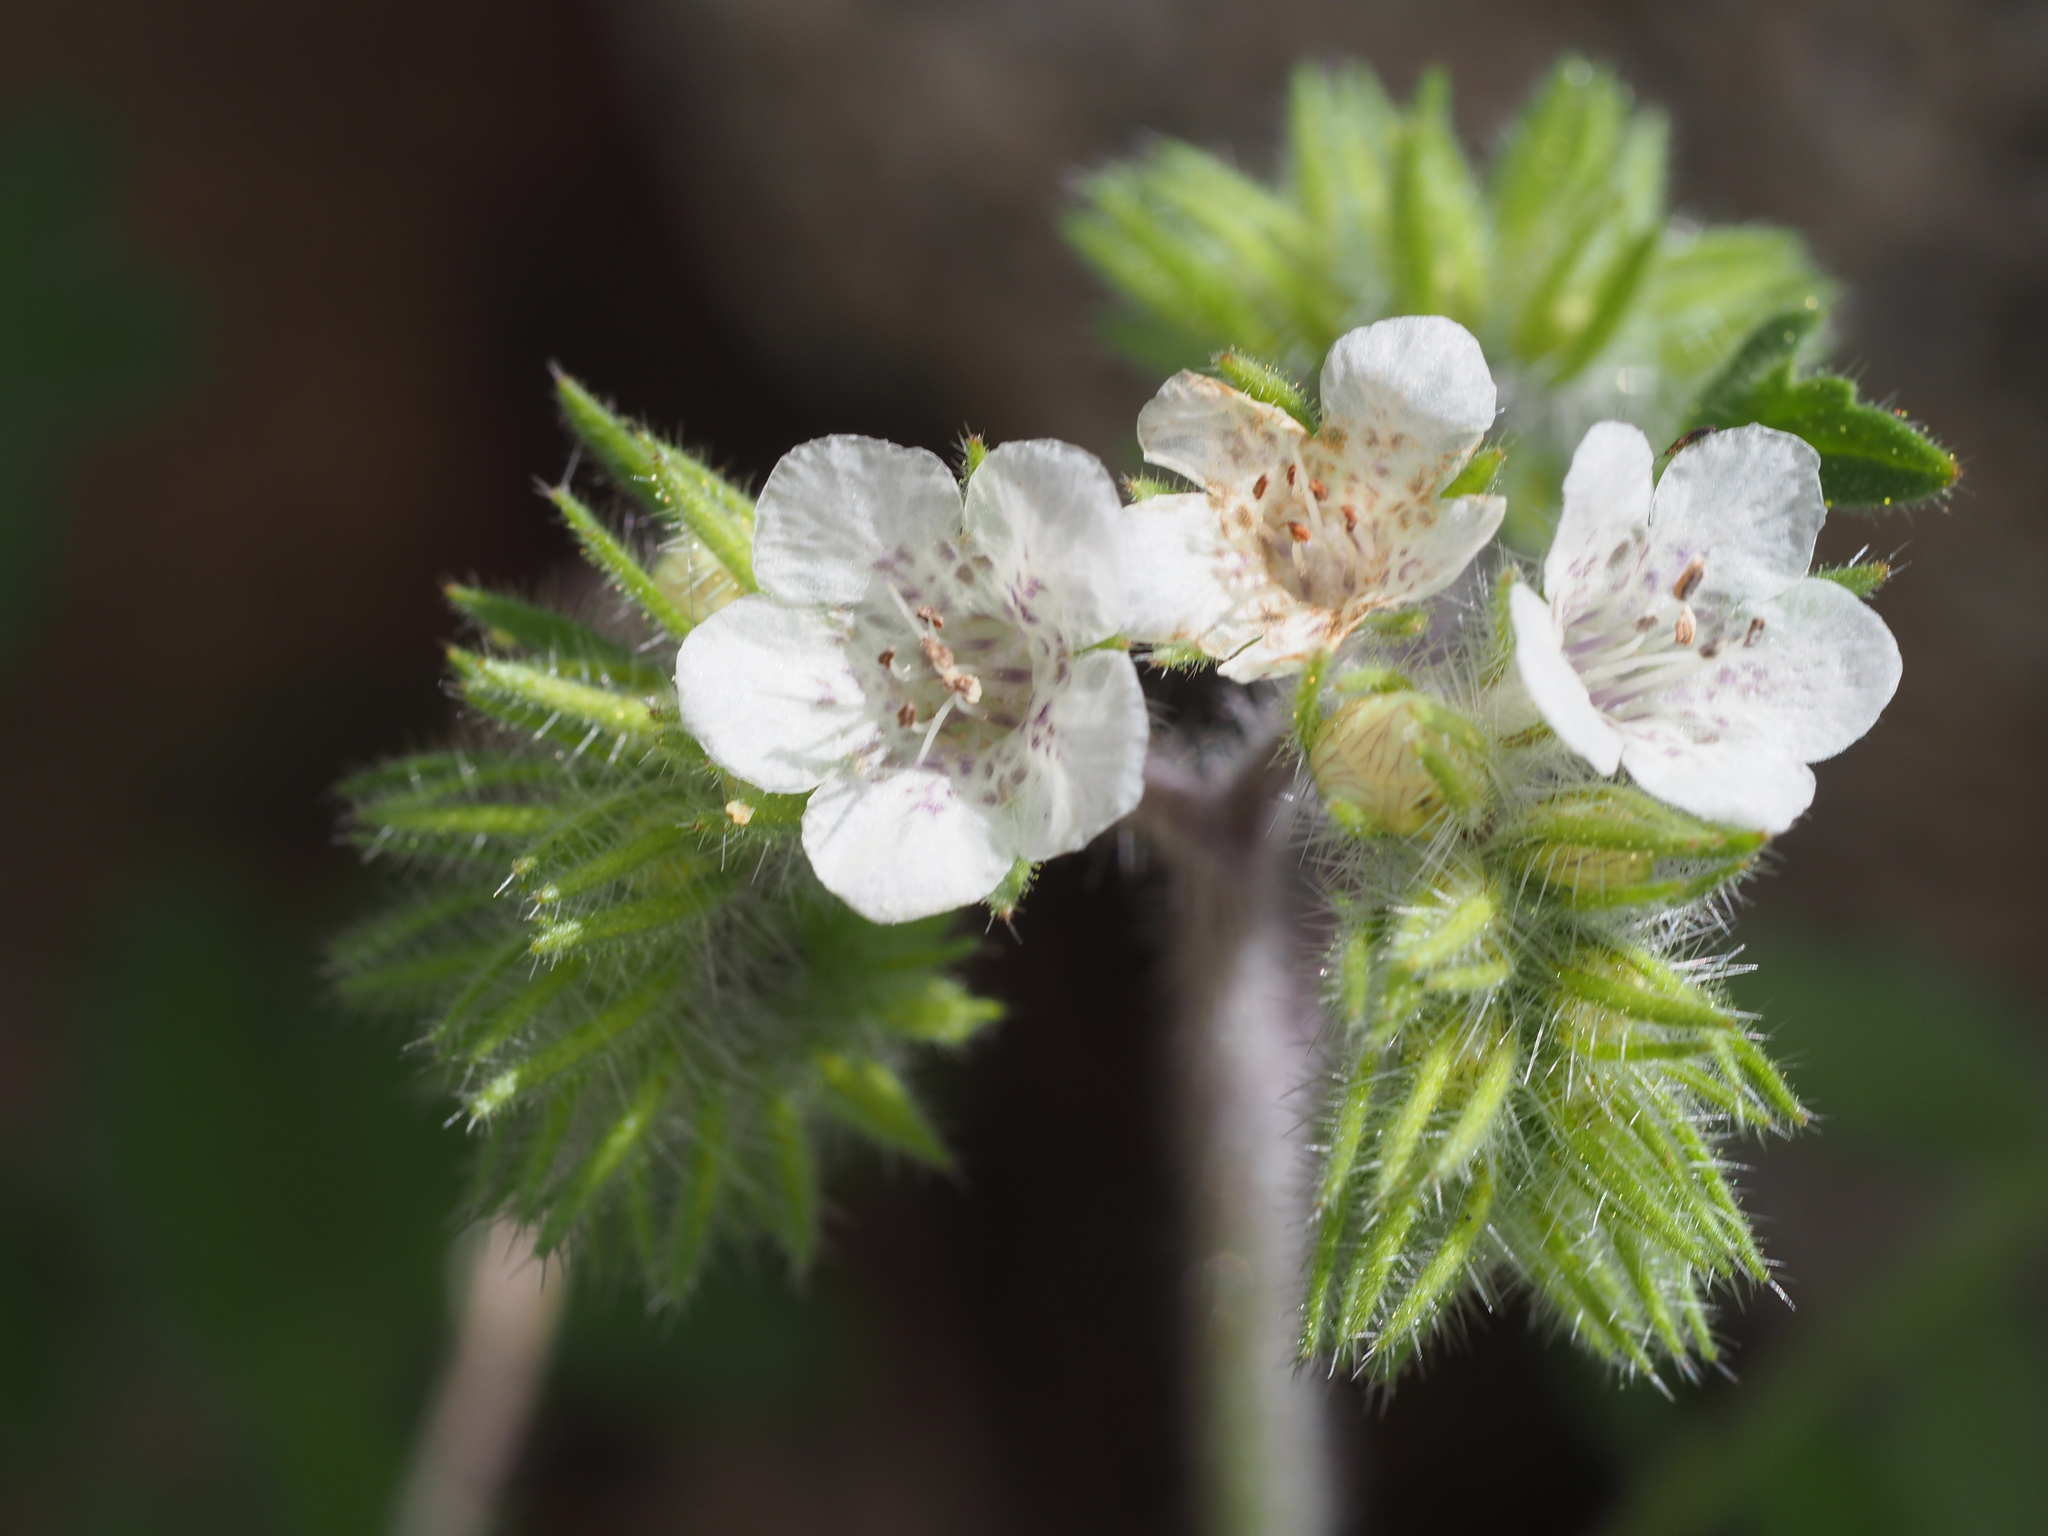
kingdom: Plantae
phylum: Tracheophyta
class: Magnoliopsida
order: Boraginales
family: Hydrophyllaceae
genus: Phacelia
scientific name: Phacelia cicutaria
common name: Caterpillar phacelia
